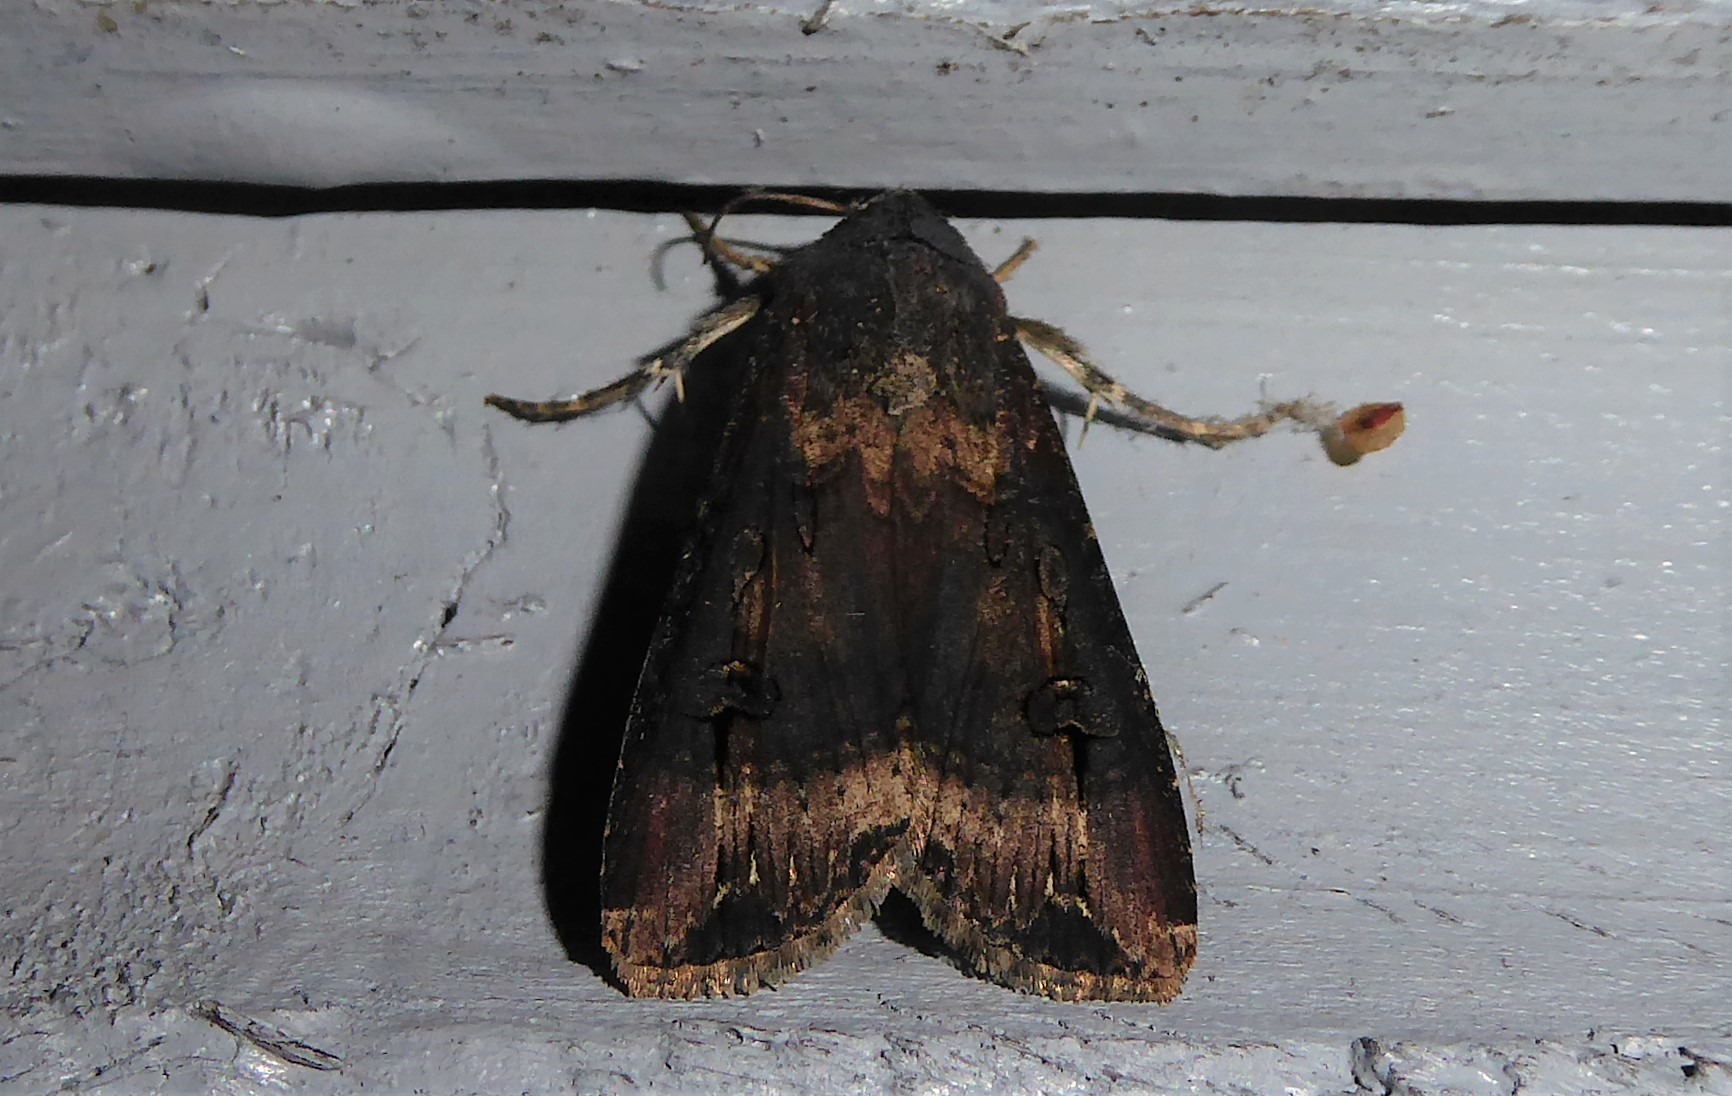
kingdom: Animalia
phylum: Arthropoda
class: Insecta
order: Lepidoptera
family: Noctuidae
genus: Agrotis
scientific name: Agrotis ipsilon
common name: Dark sword-grass
